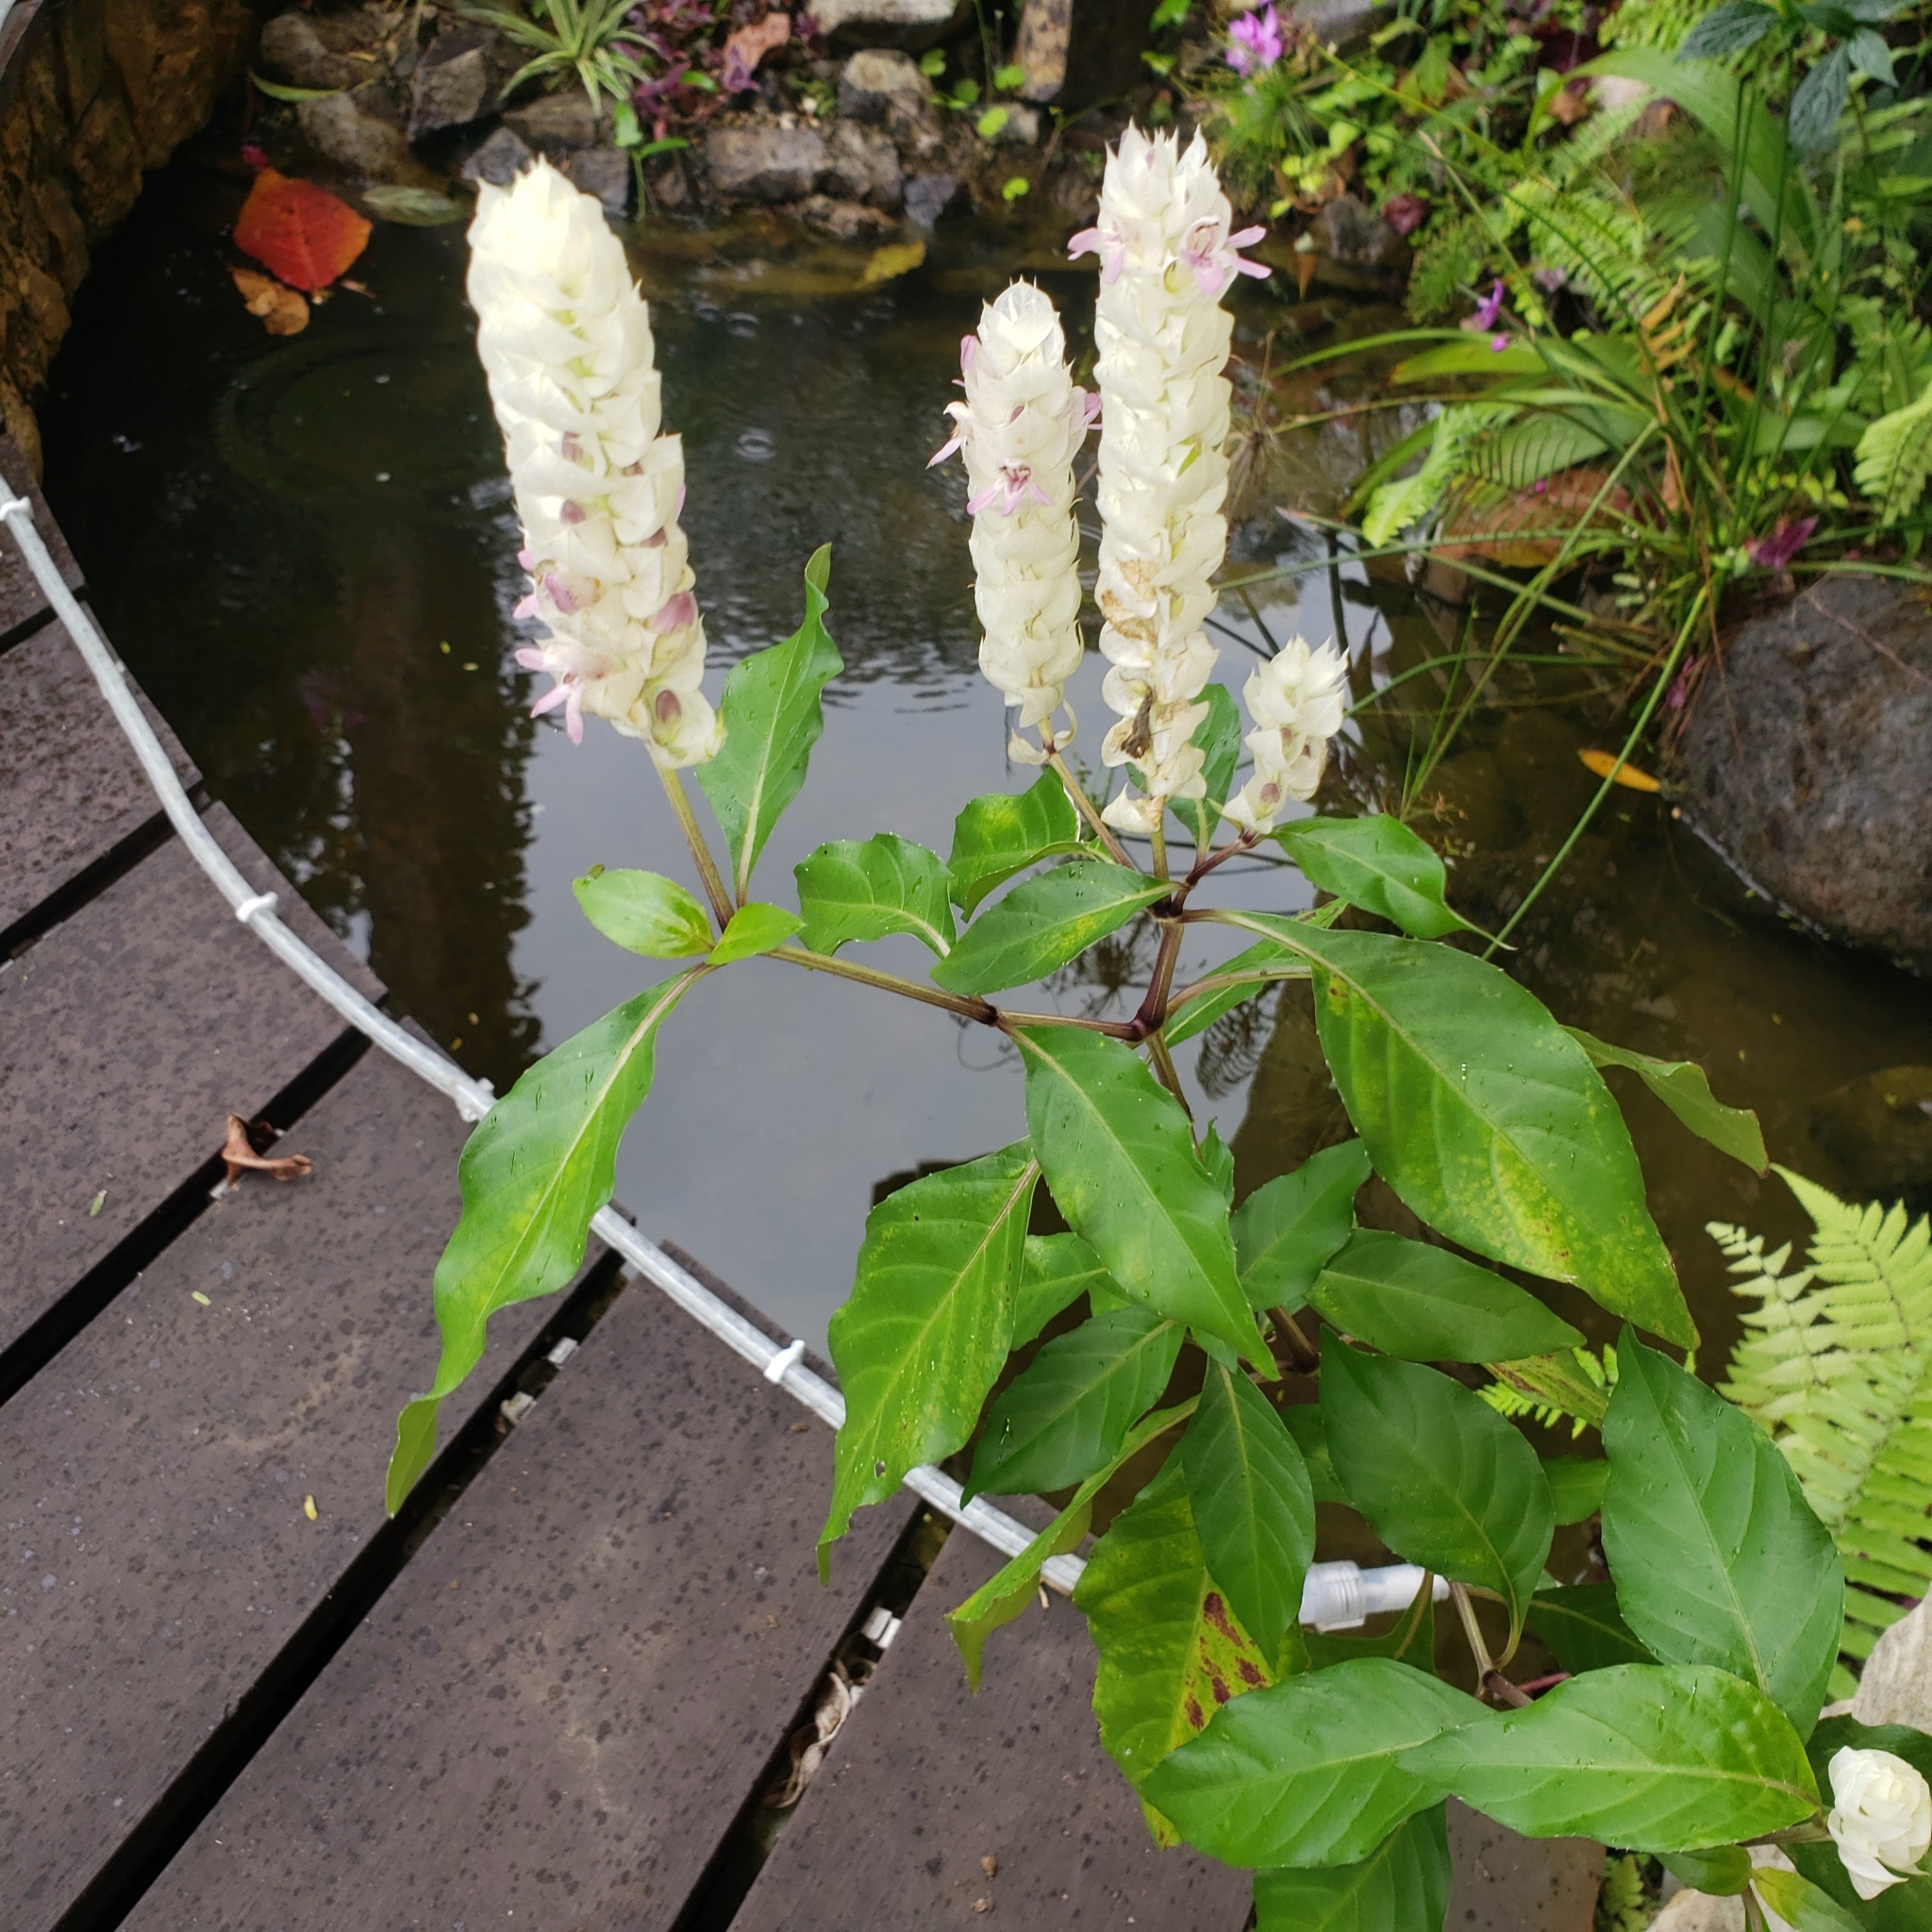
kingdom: Plantae
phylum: Tracheophyta
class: Magnoliopsida
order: Lamiales
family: Acanthaceae
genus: Justicia
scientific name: Justicia betonica
